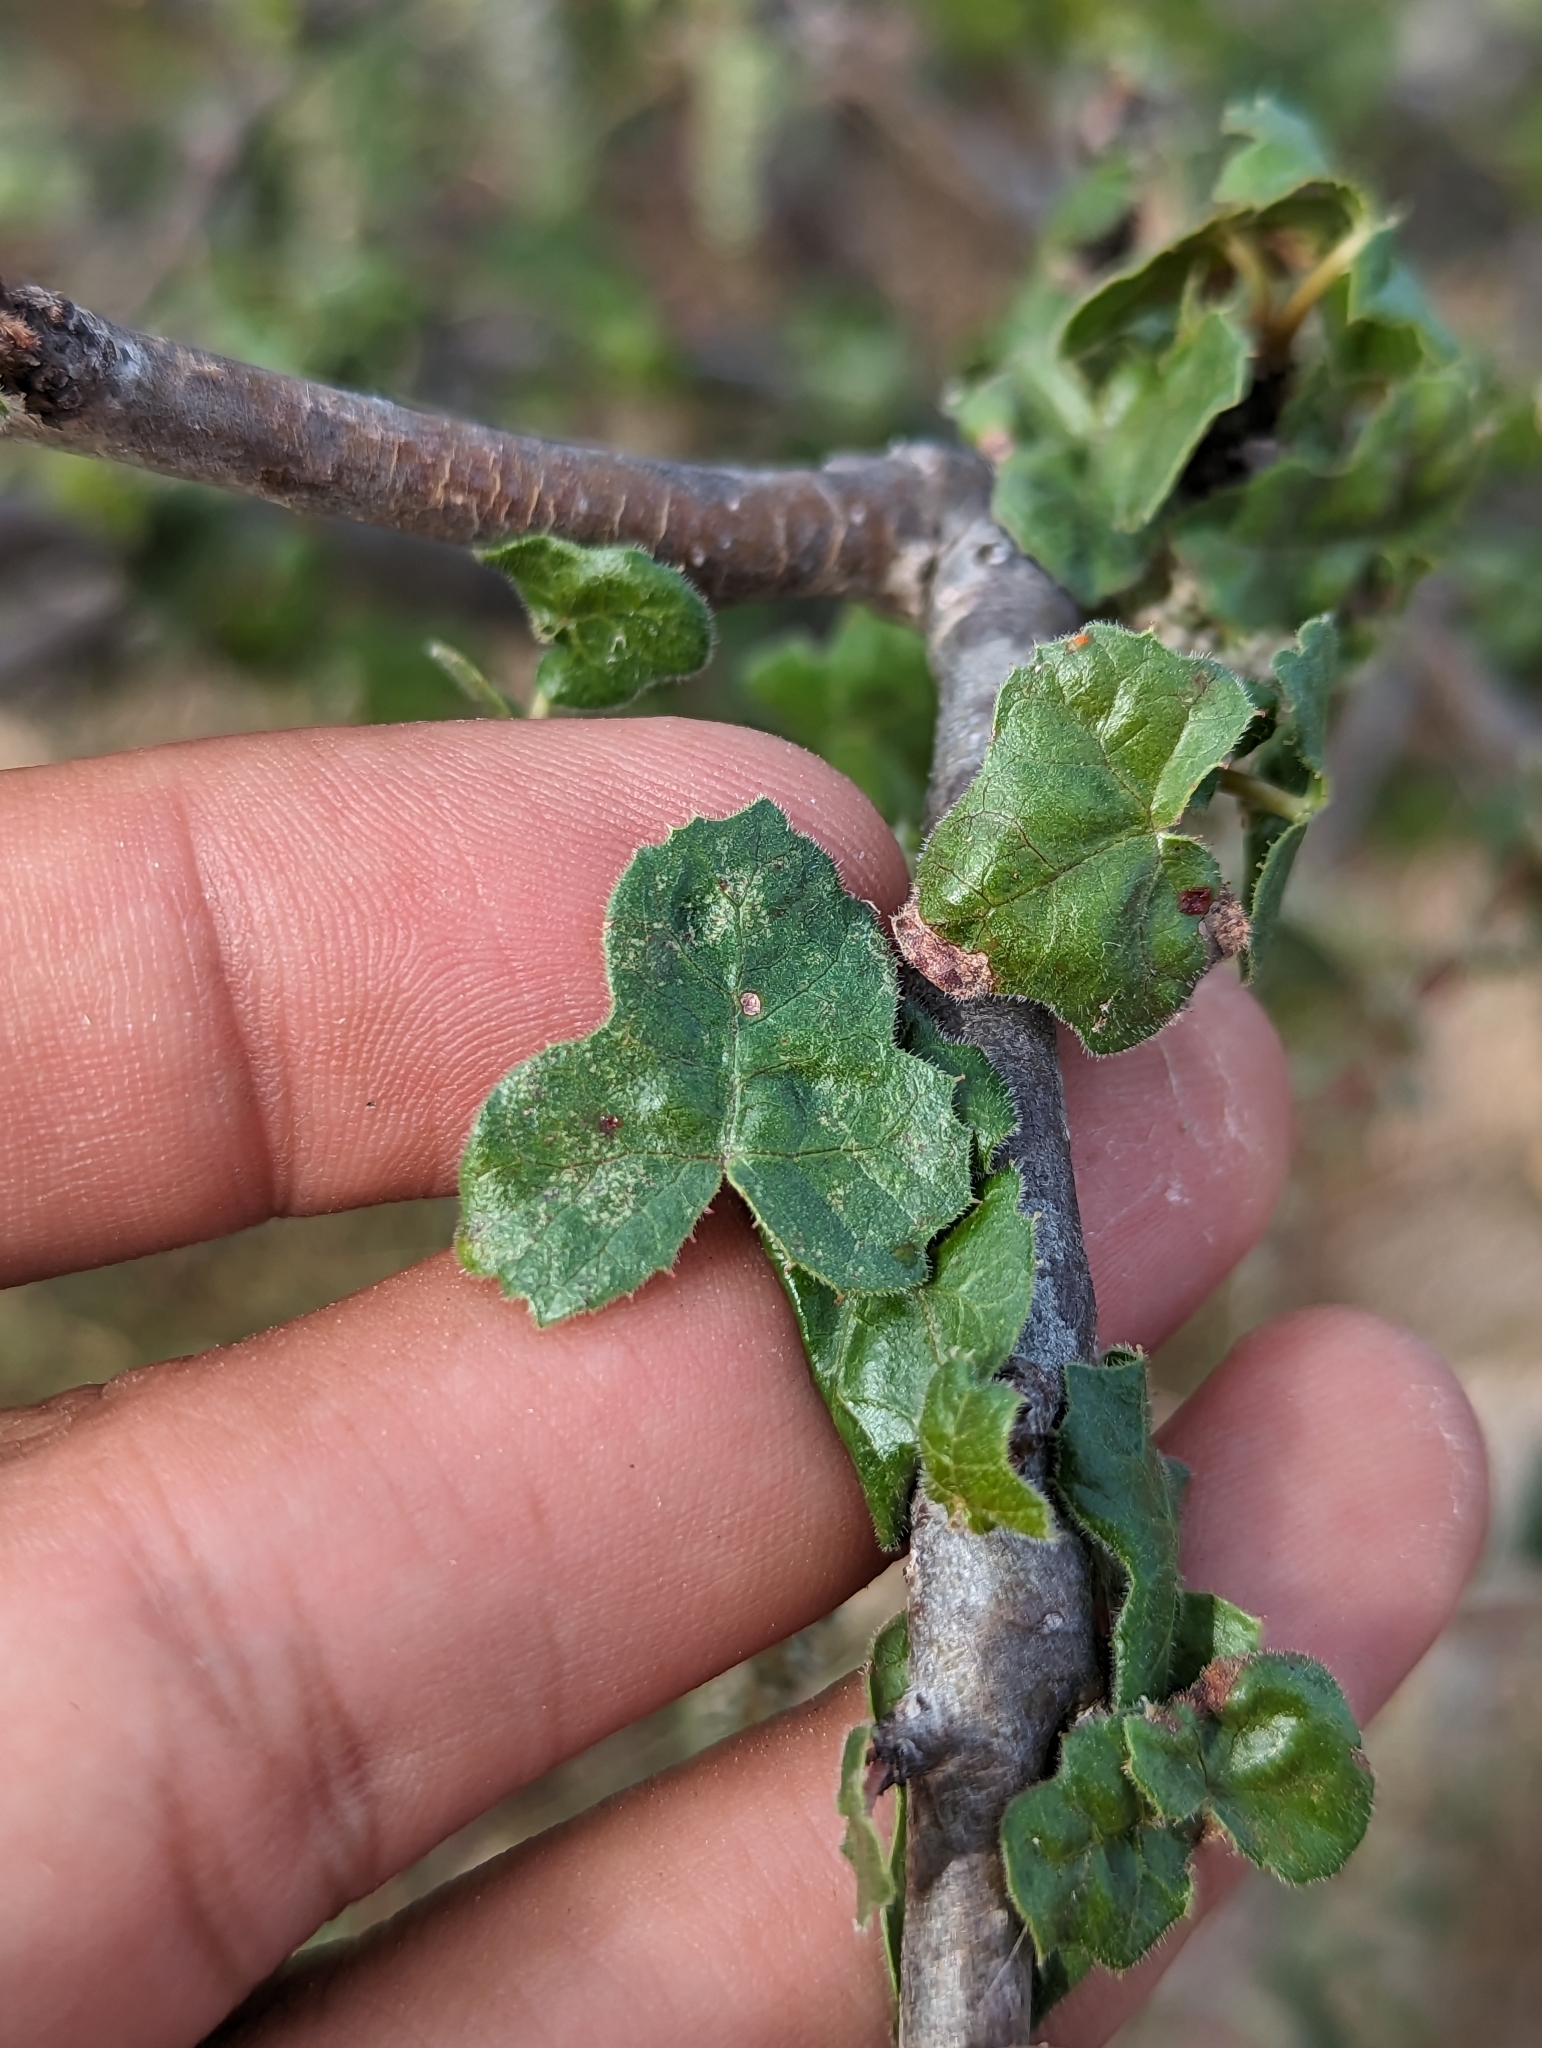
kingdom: Plantae
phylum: Tracheophyta
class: Magnoliopsida
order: Malpighiales
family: Euphorbiaceae
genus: Jatropha
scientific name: Jatropha moranii
